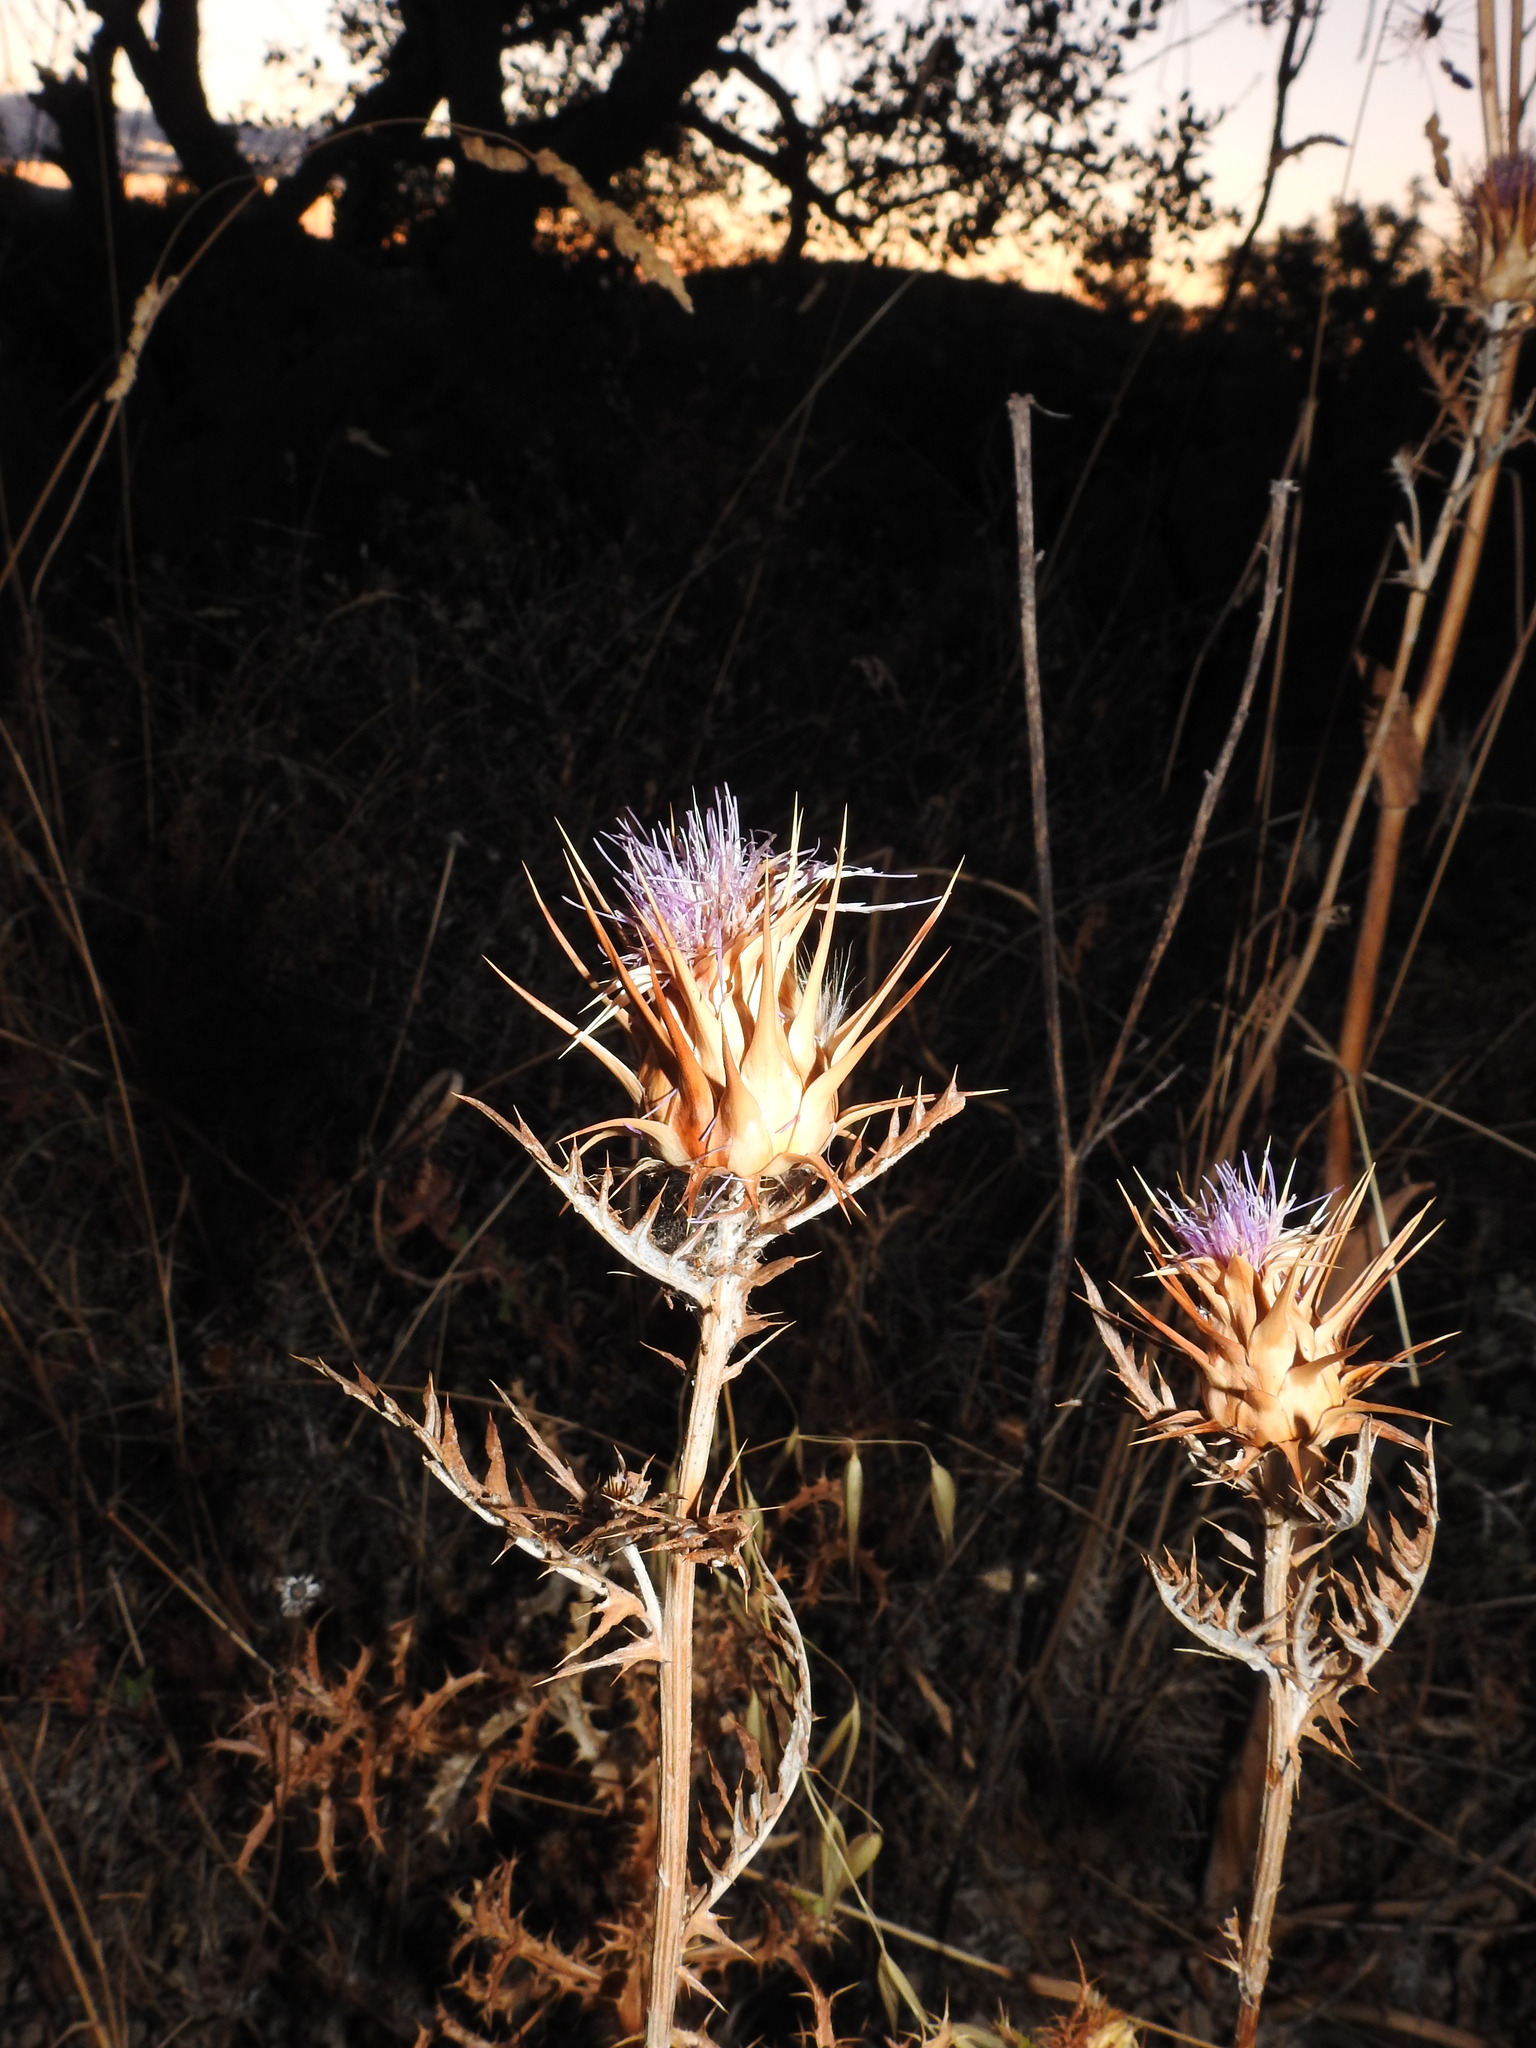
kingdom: Plantae
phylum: Tracheophyta
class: Magnoliopsida
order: Asterales
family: Asteraceae
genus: Cynara
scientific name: Cynara algarbiensis
